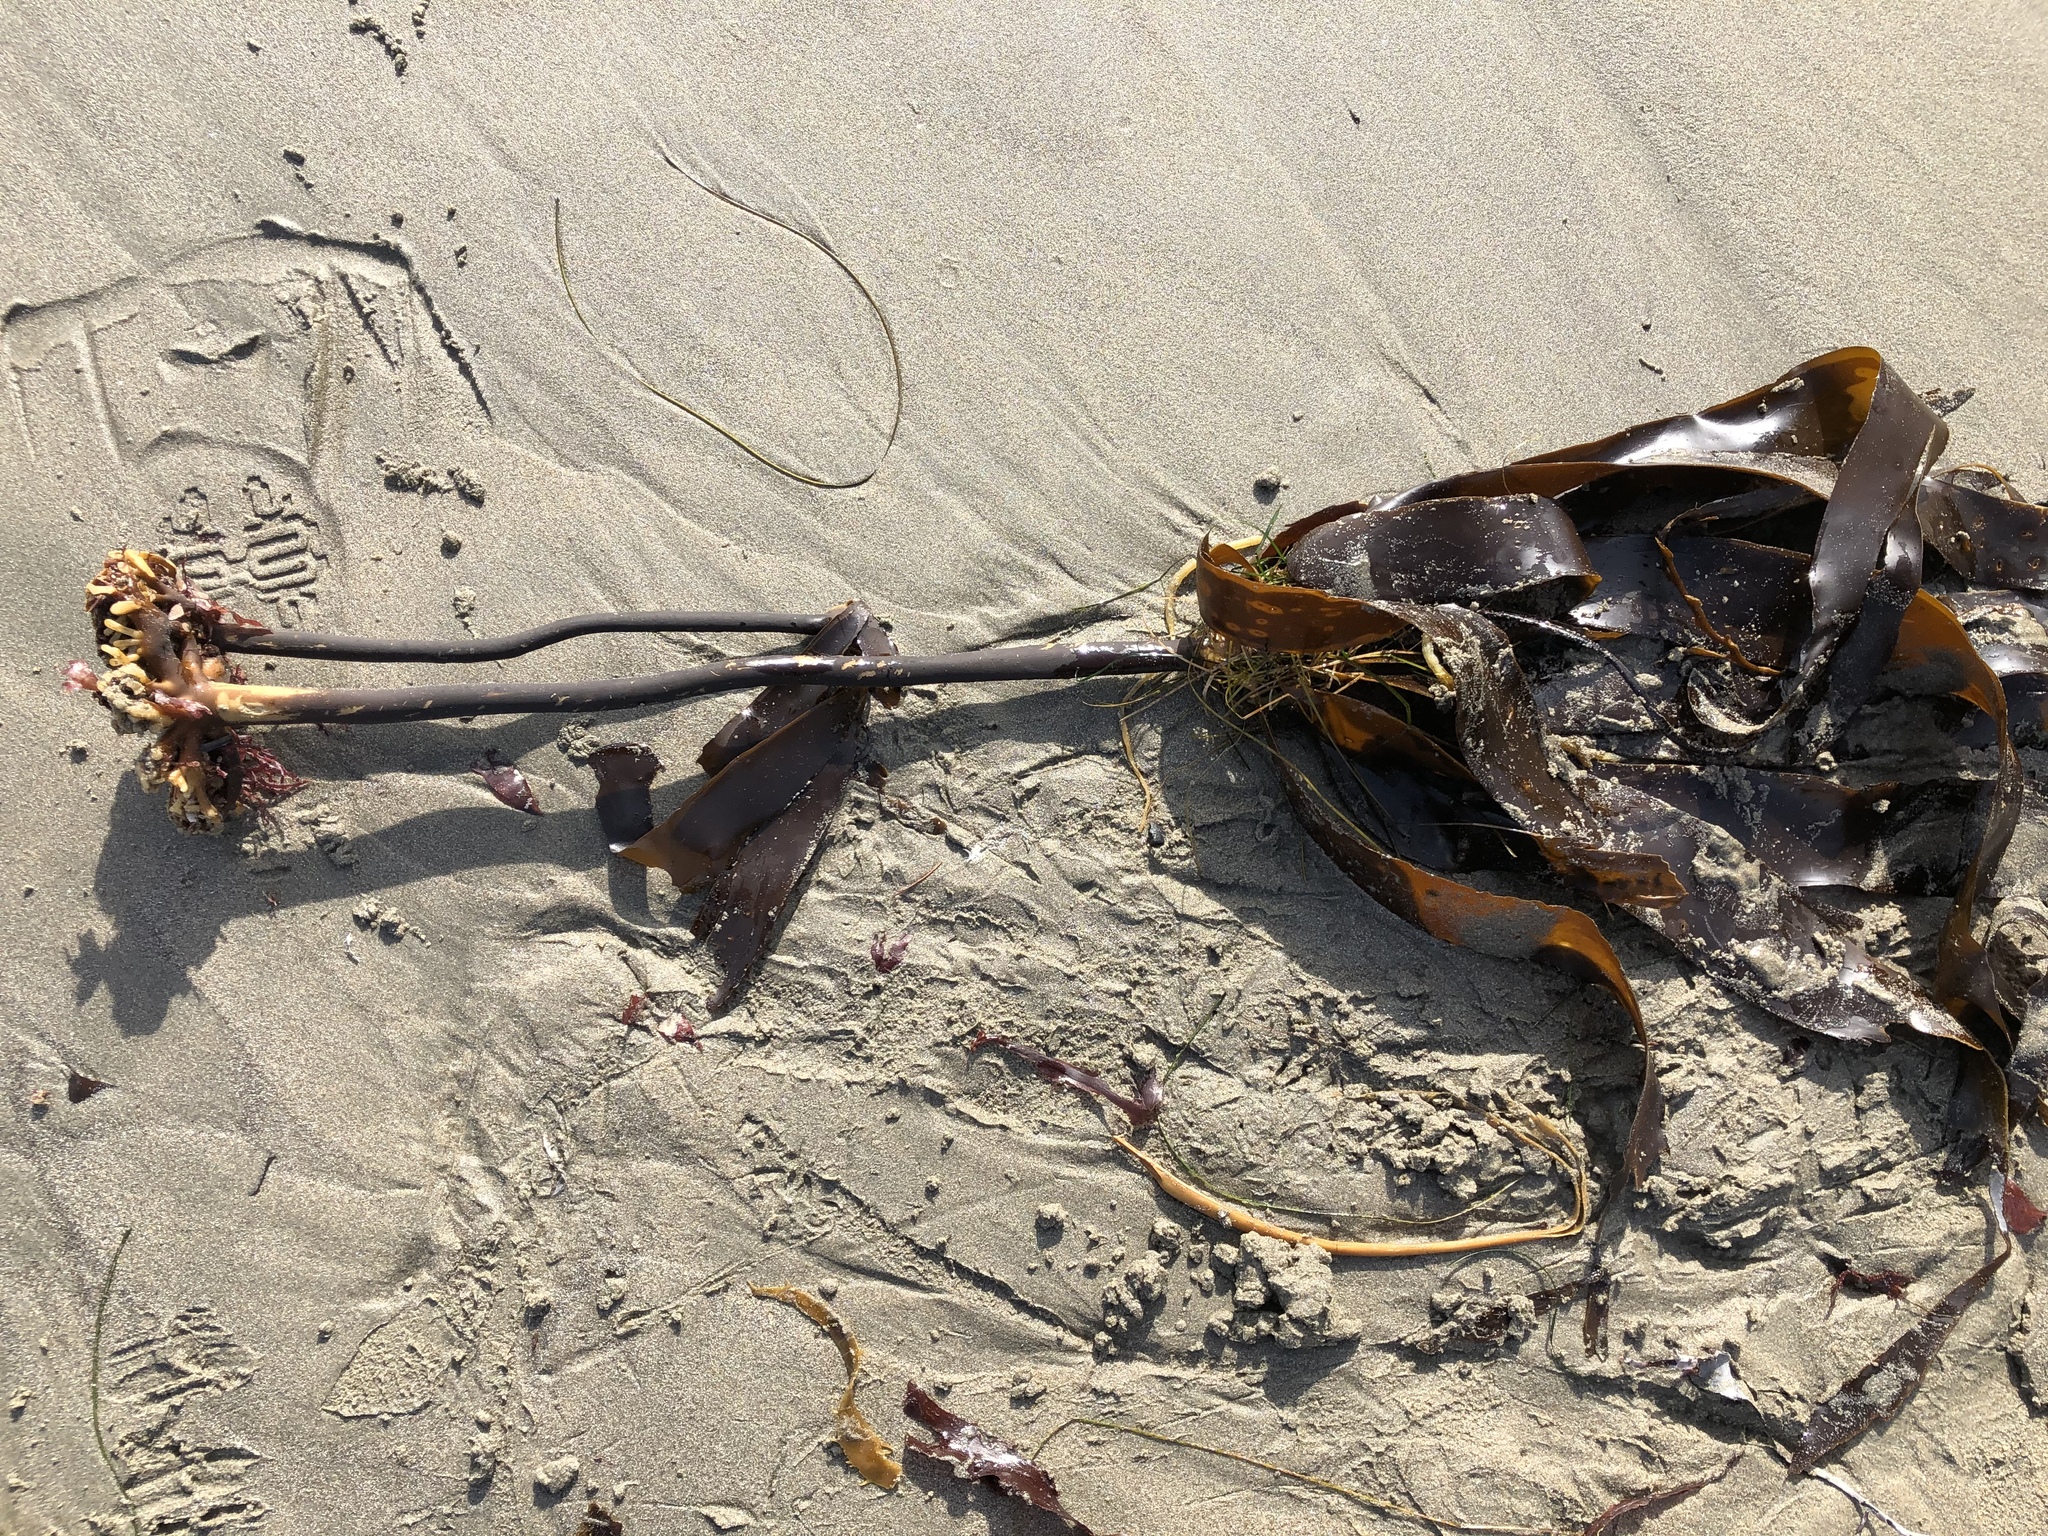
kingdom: Chromista
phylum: Ochrophyta
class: Phaeophyceae
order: Laminariales
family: Alariaceae
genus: Pterygophora
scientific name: Pterygophora californica
